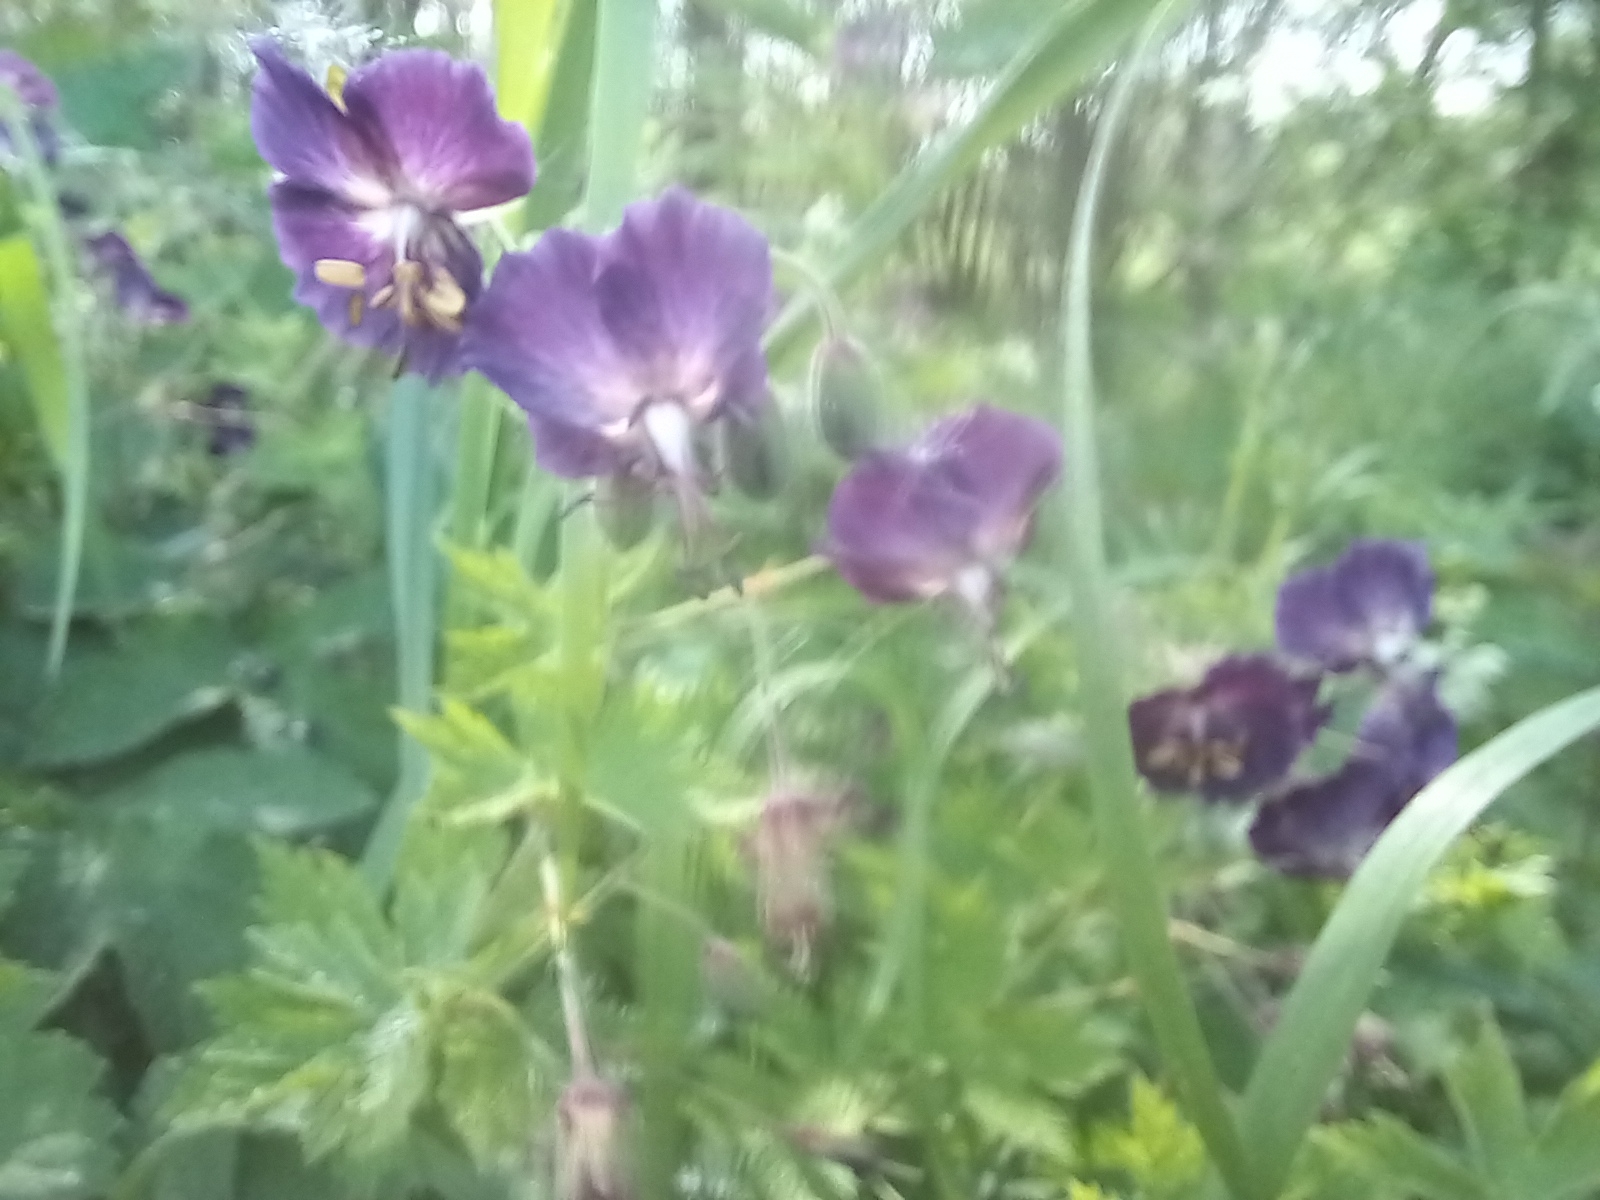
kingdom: Plantae
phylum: Tracheophyta
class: Magnoliopsida
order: Geraniales
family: Geraniaceae
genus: Geranium
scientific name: Geranium phaeum
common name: Dusky crane's-bill
